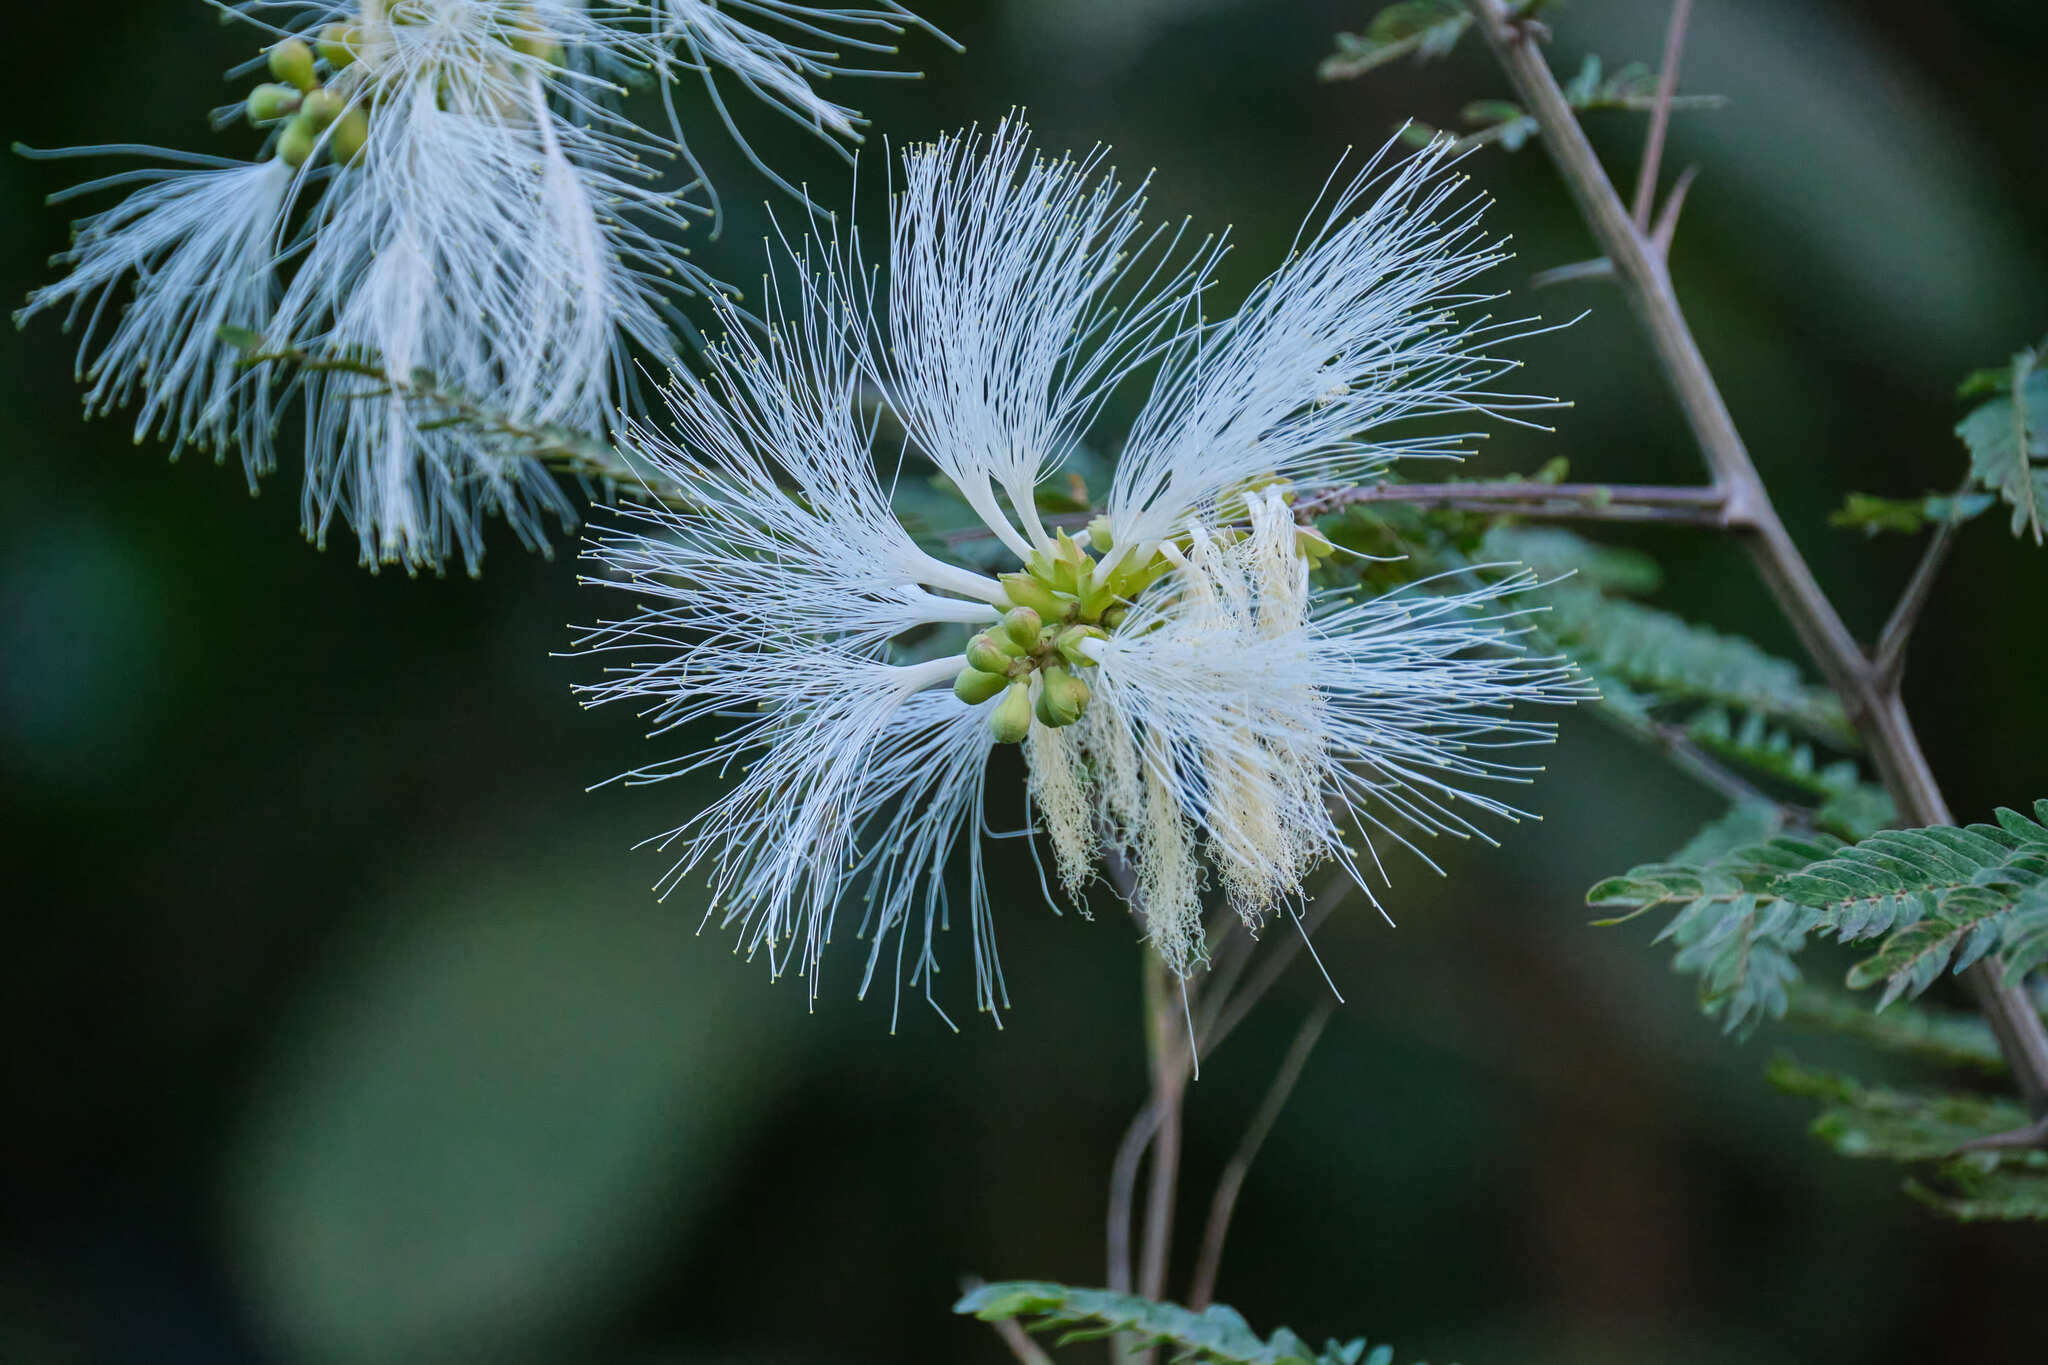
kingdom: Plantae
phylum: Tracheophyta
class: Magnoliopsida
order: Fabales
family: Fabaceae
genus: Pithecellobium
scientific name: Pithecellobium macrandrium
